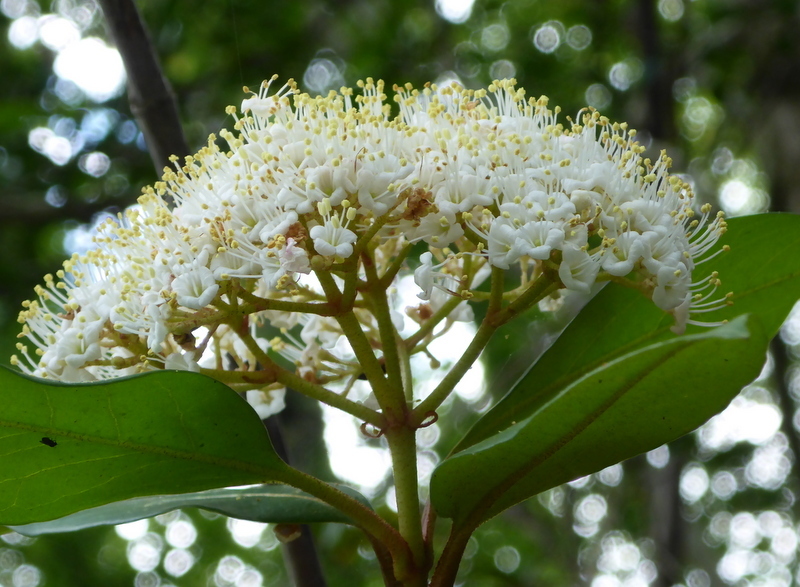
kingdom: Plantae
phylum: Tracheophyta
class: Magnoliopsida
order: Dipsacales
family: Viburnaceae
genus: Viburnum
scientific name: Viburnum nudum
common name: Possum haw
